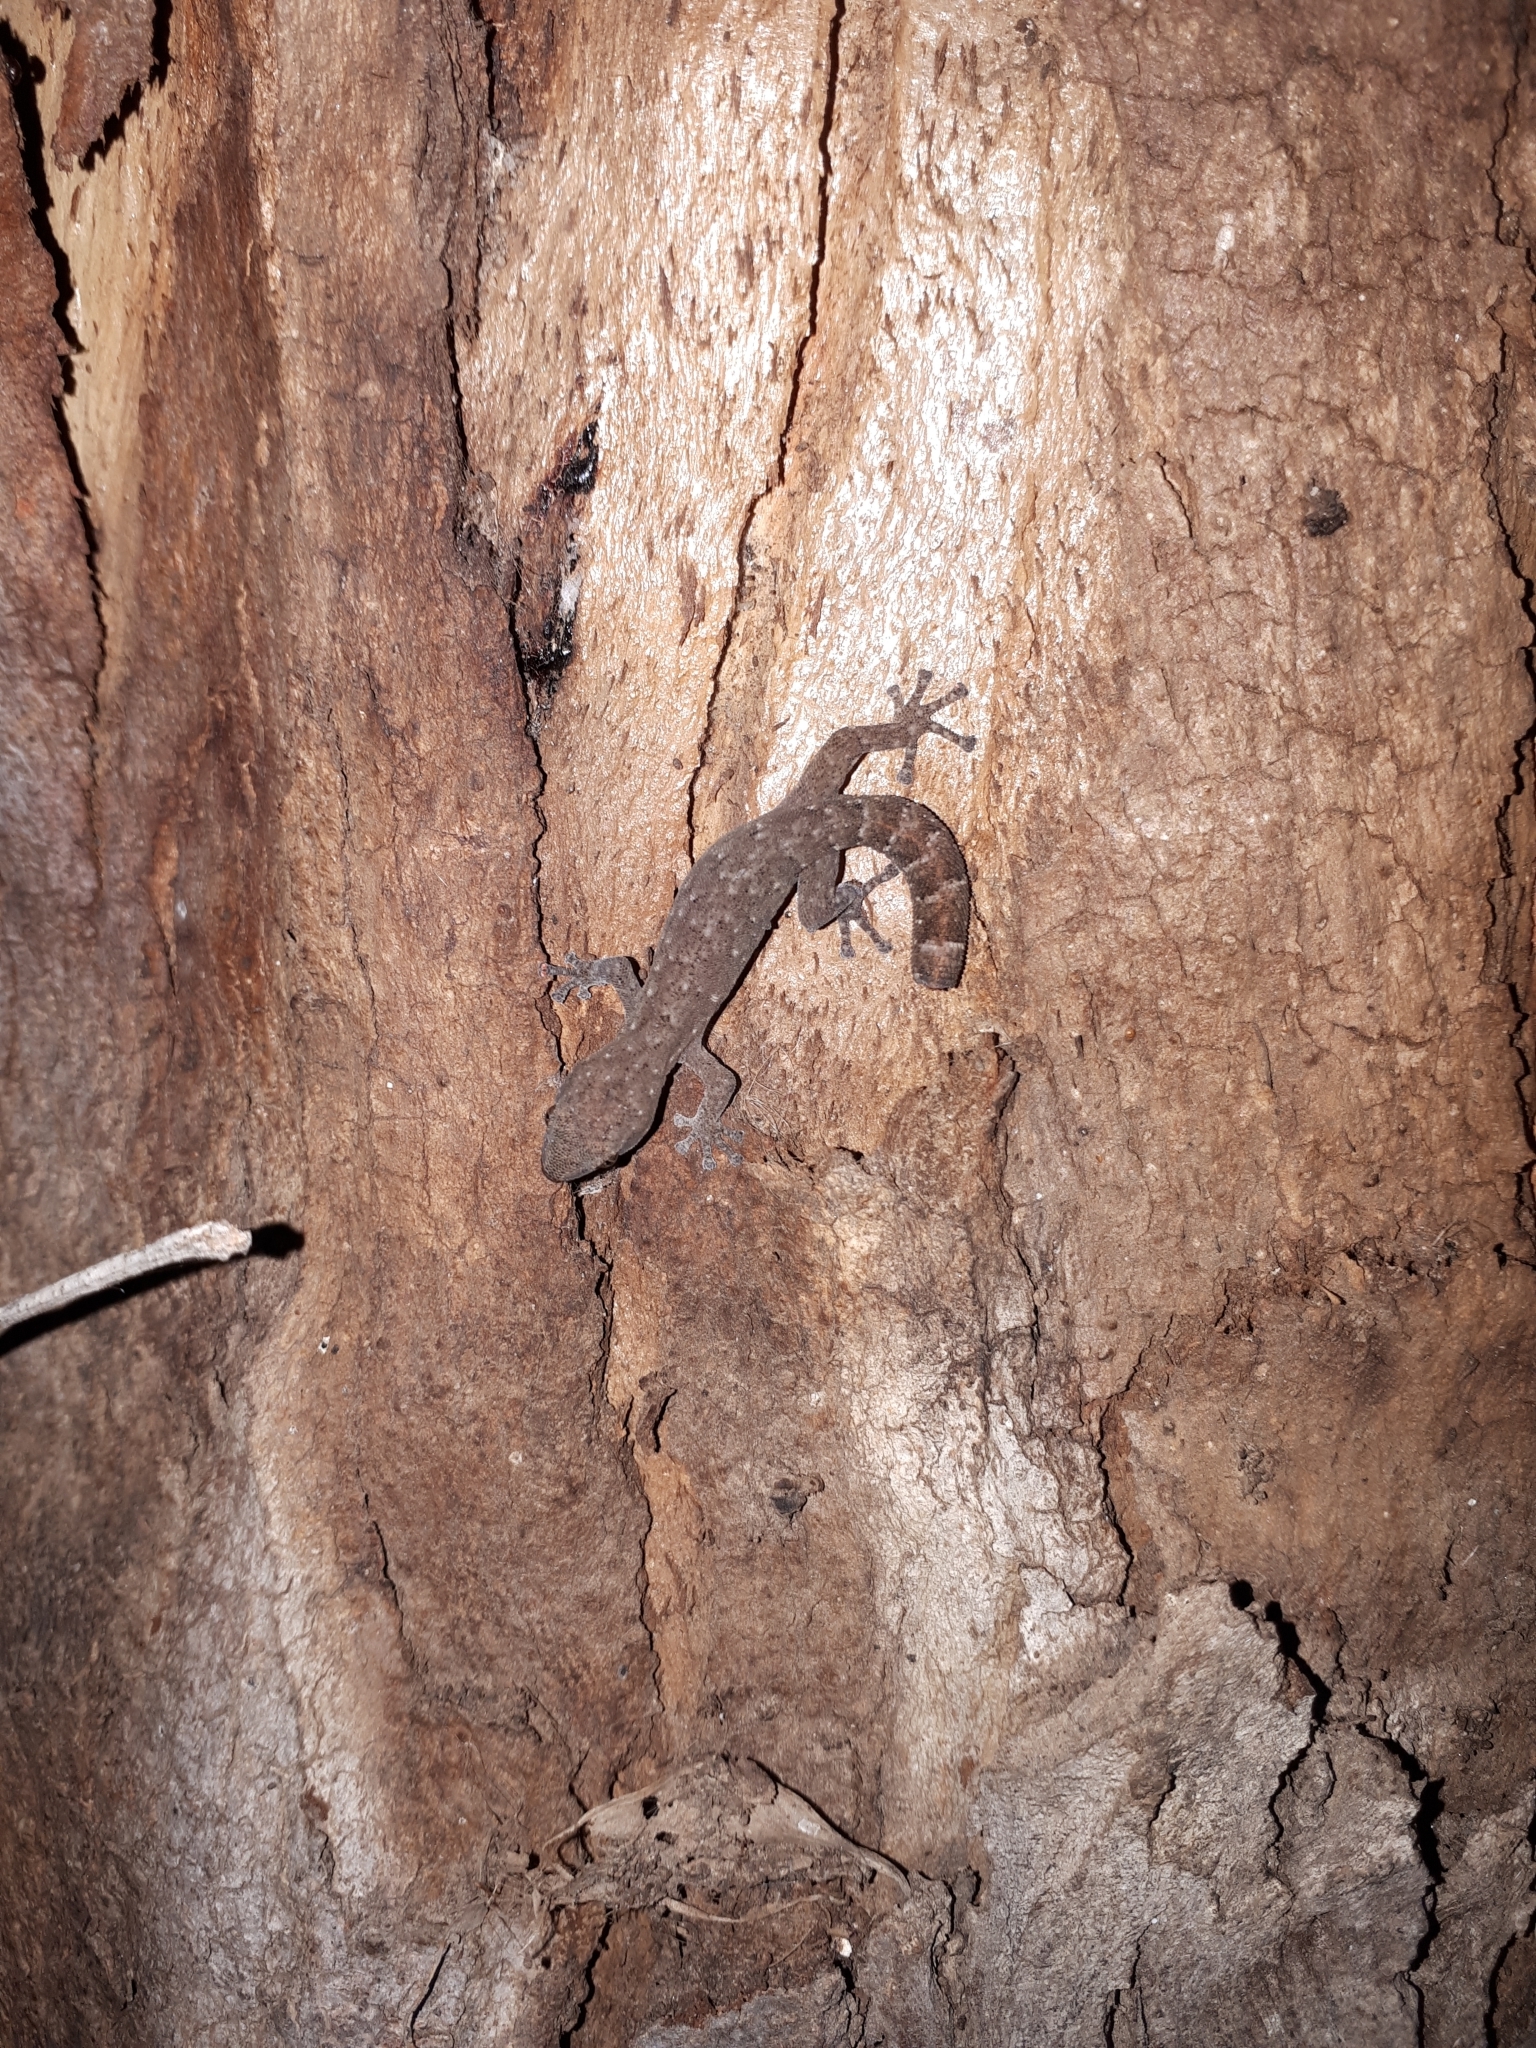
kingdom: Animalia
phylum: Chordata
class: Squamata
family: Gekkonidae
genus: Afrogecko
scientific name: Afrogecko porphyreus
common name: Marbled leaf-toed gecko
